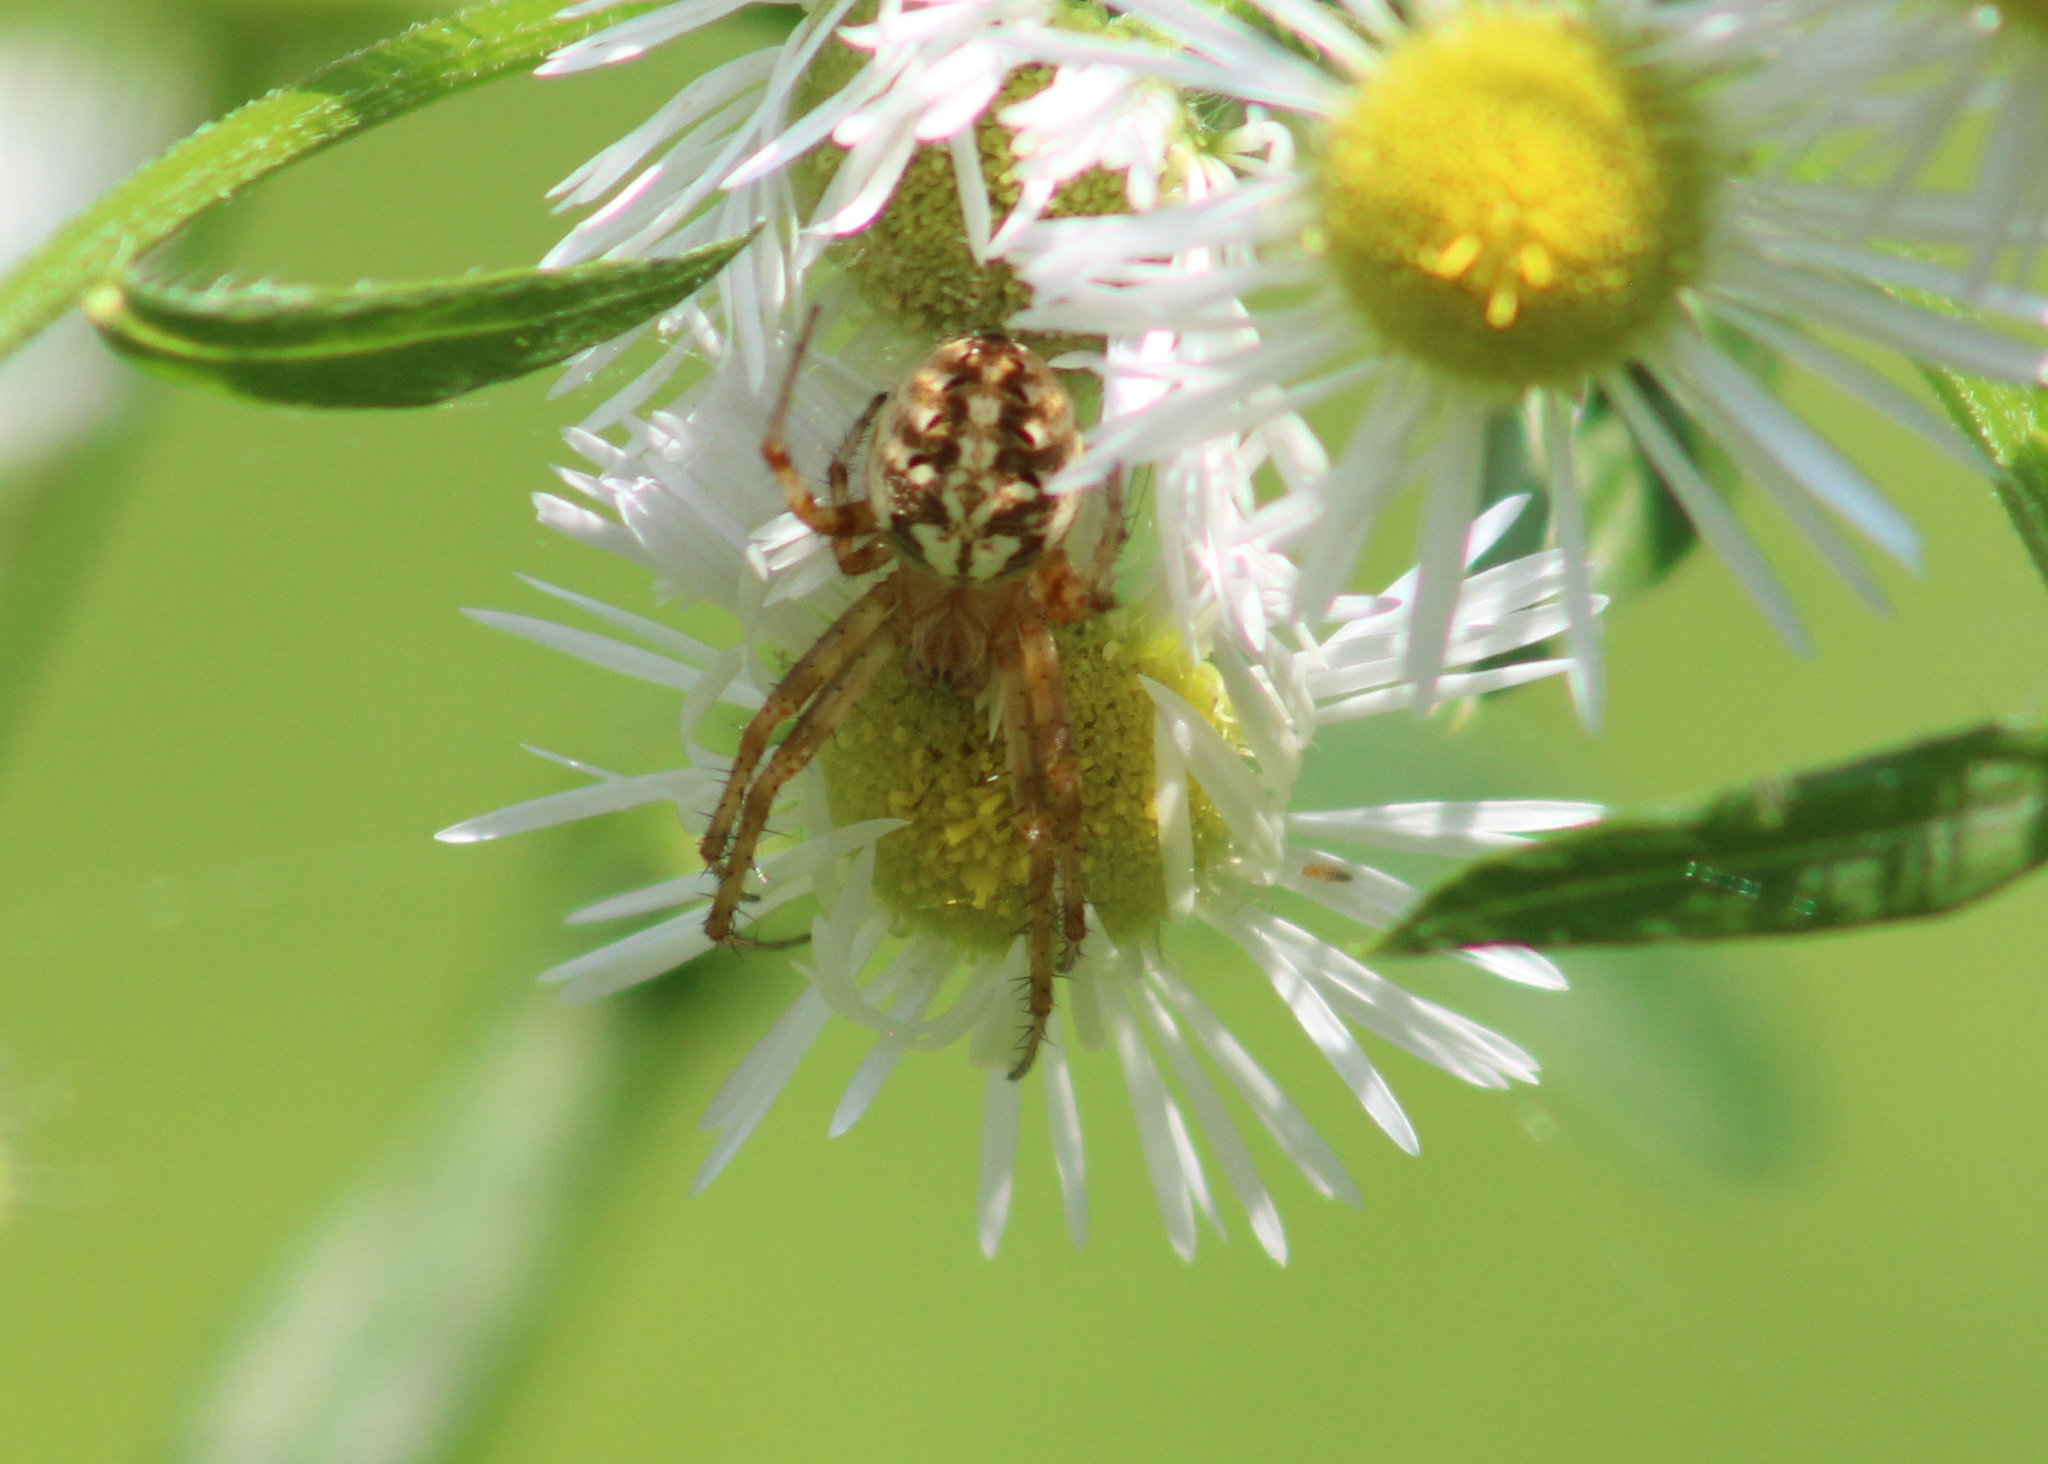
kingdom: Animalia
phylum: Arthropoda
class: Arachnida
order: Araneae
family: Araneidae
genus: Neoscona
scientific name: Neoscona arabesca
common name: Orb weavers
